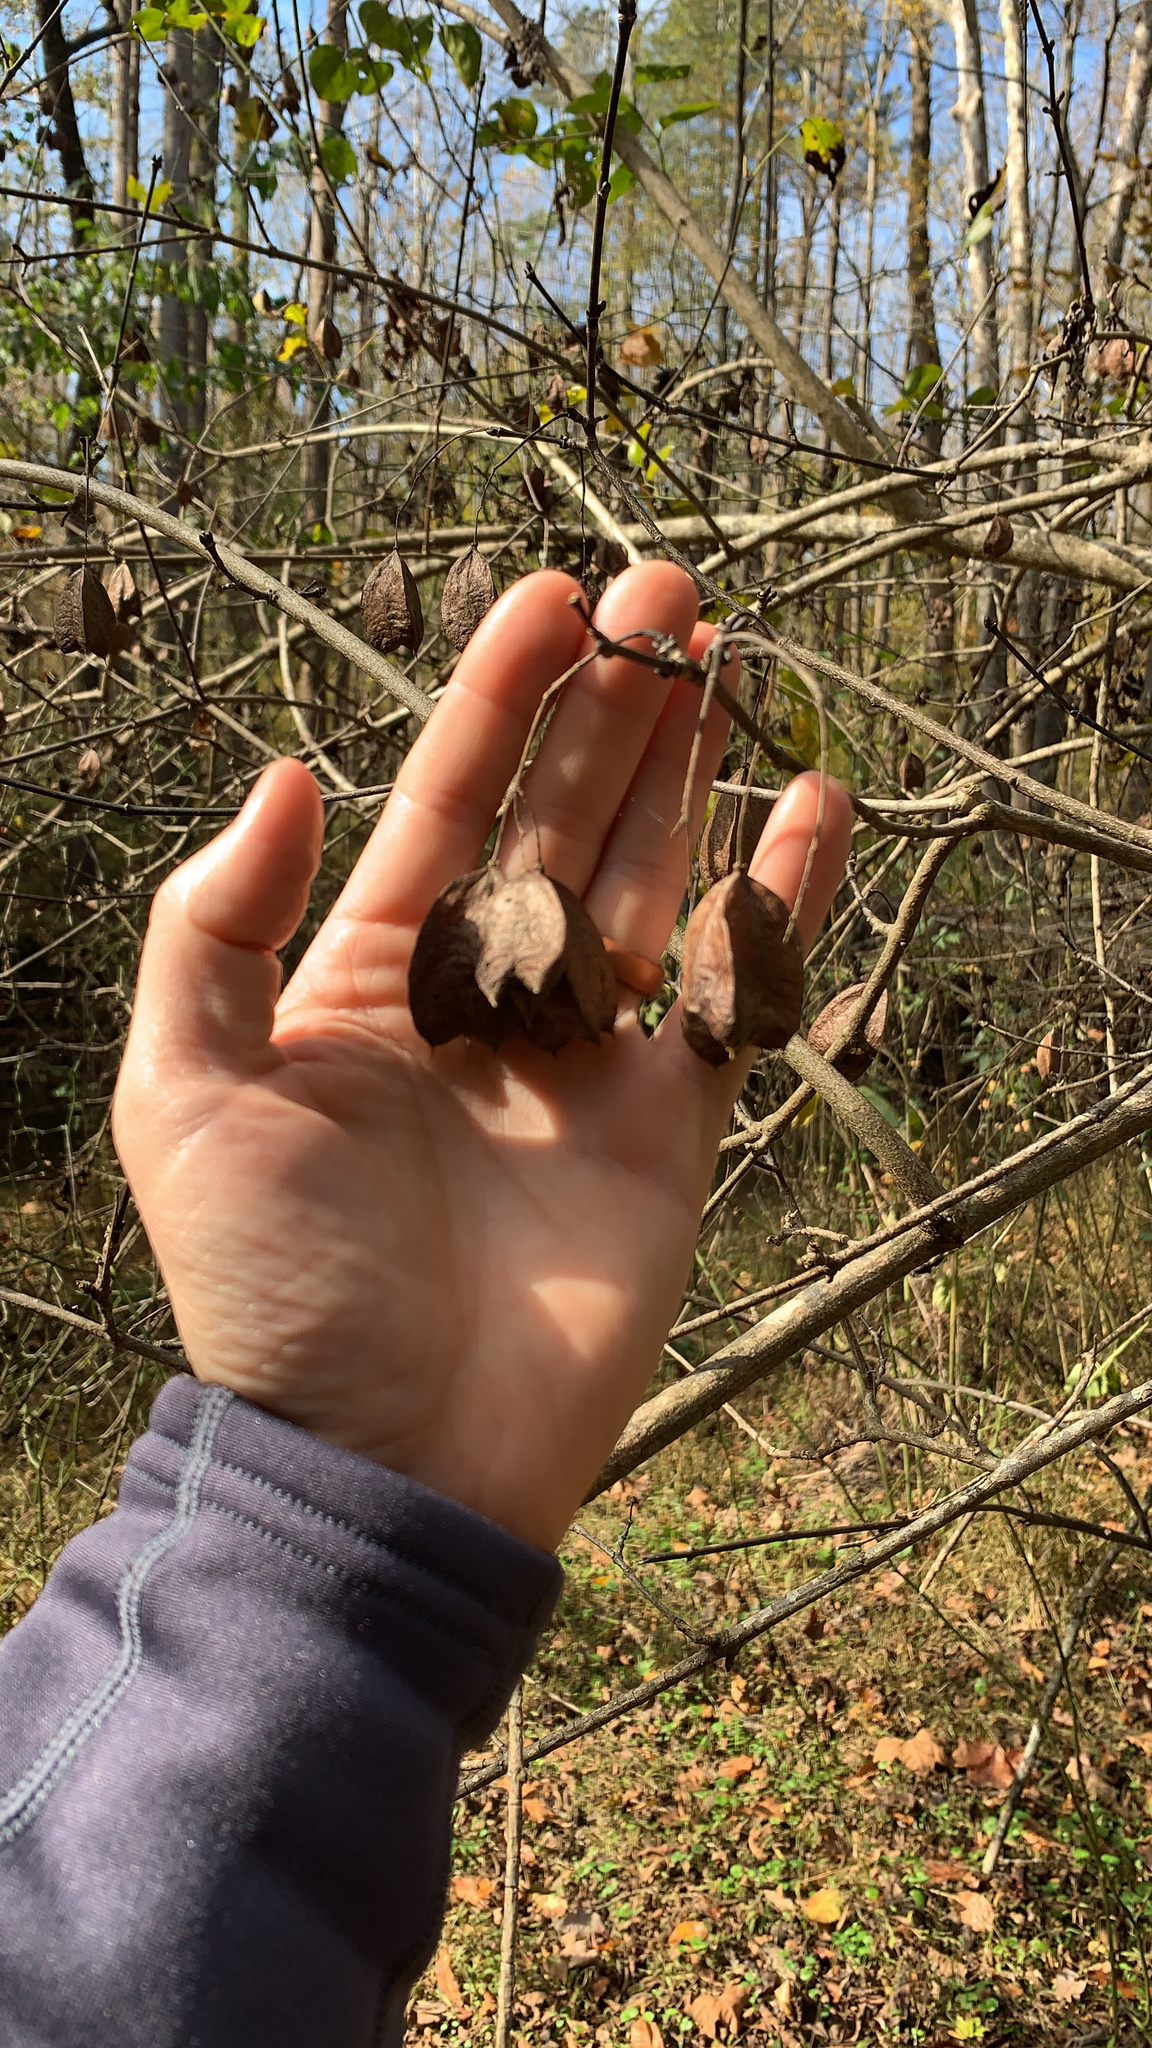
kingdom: Plantae
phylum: Tracheophyta
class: Magnoliopsida
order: Crossosomatales
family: Staphyleaceae
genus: Staphylea
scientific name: Staphylea trifolia
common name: American bladdernut
